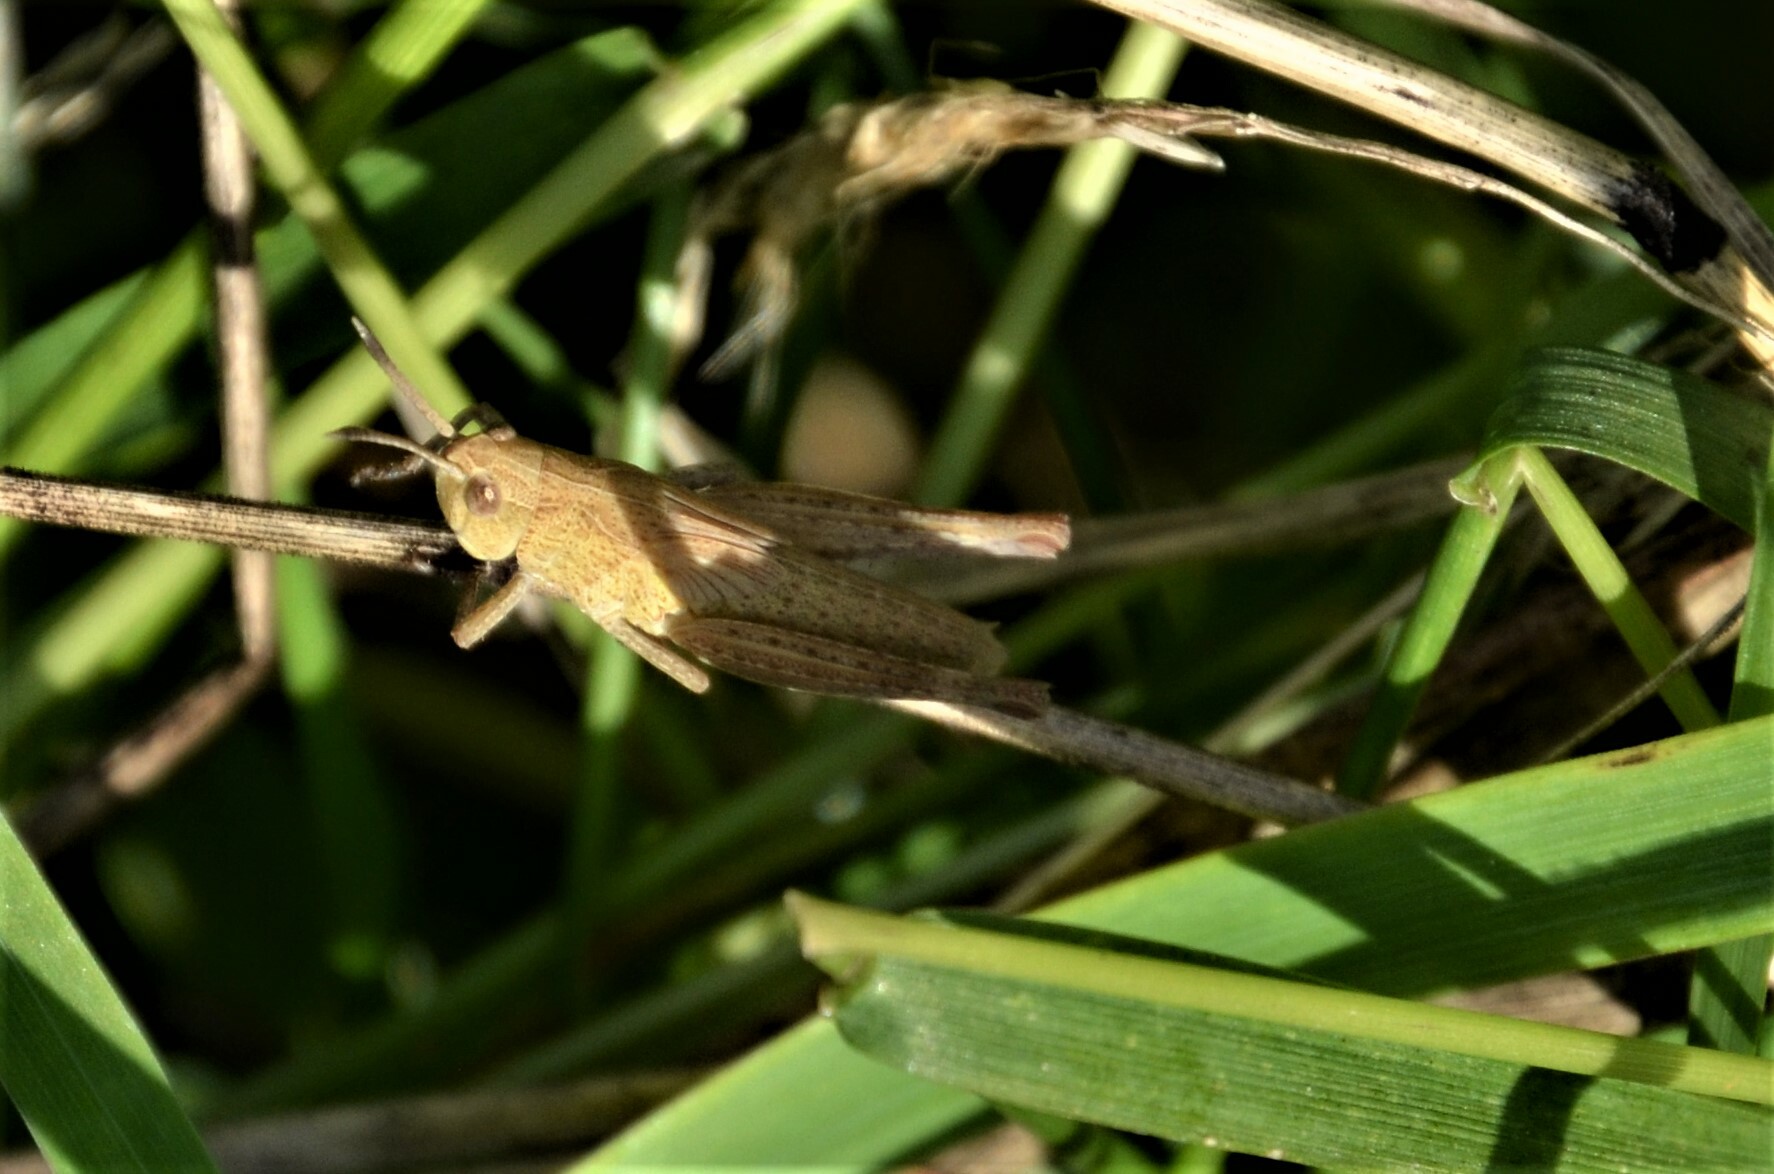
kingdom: Animalia
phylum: Arthropoda
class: Insecta
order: Orthoptera
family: Acrididae
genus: Gomphocerippus
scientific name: Gomphocerippus rufus
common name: Rufous grasshopper
